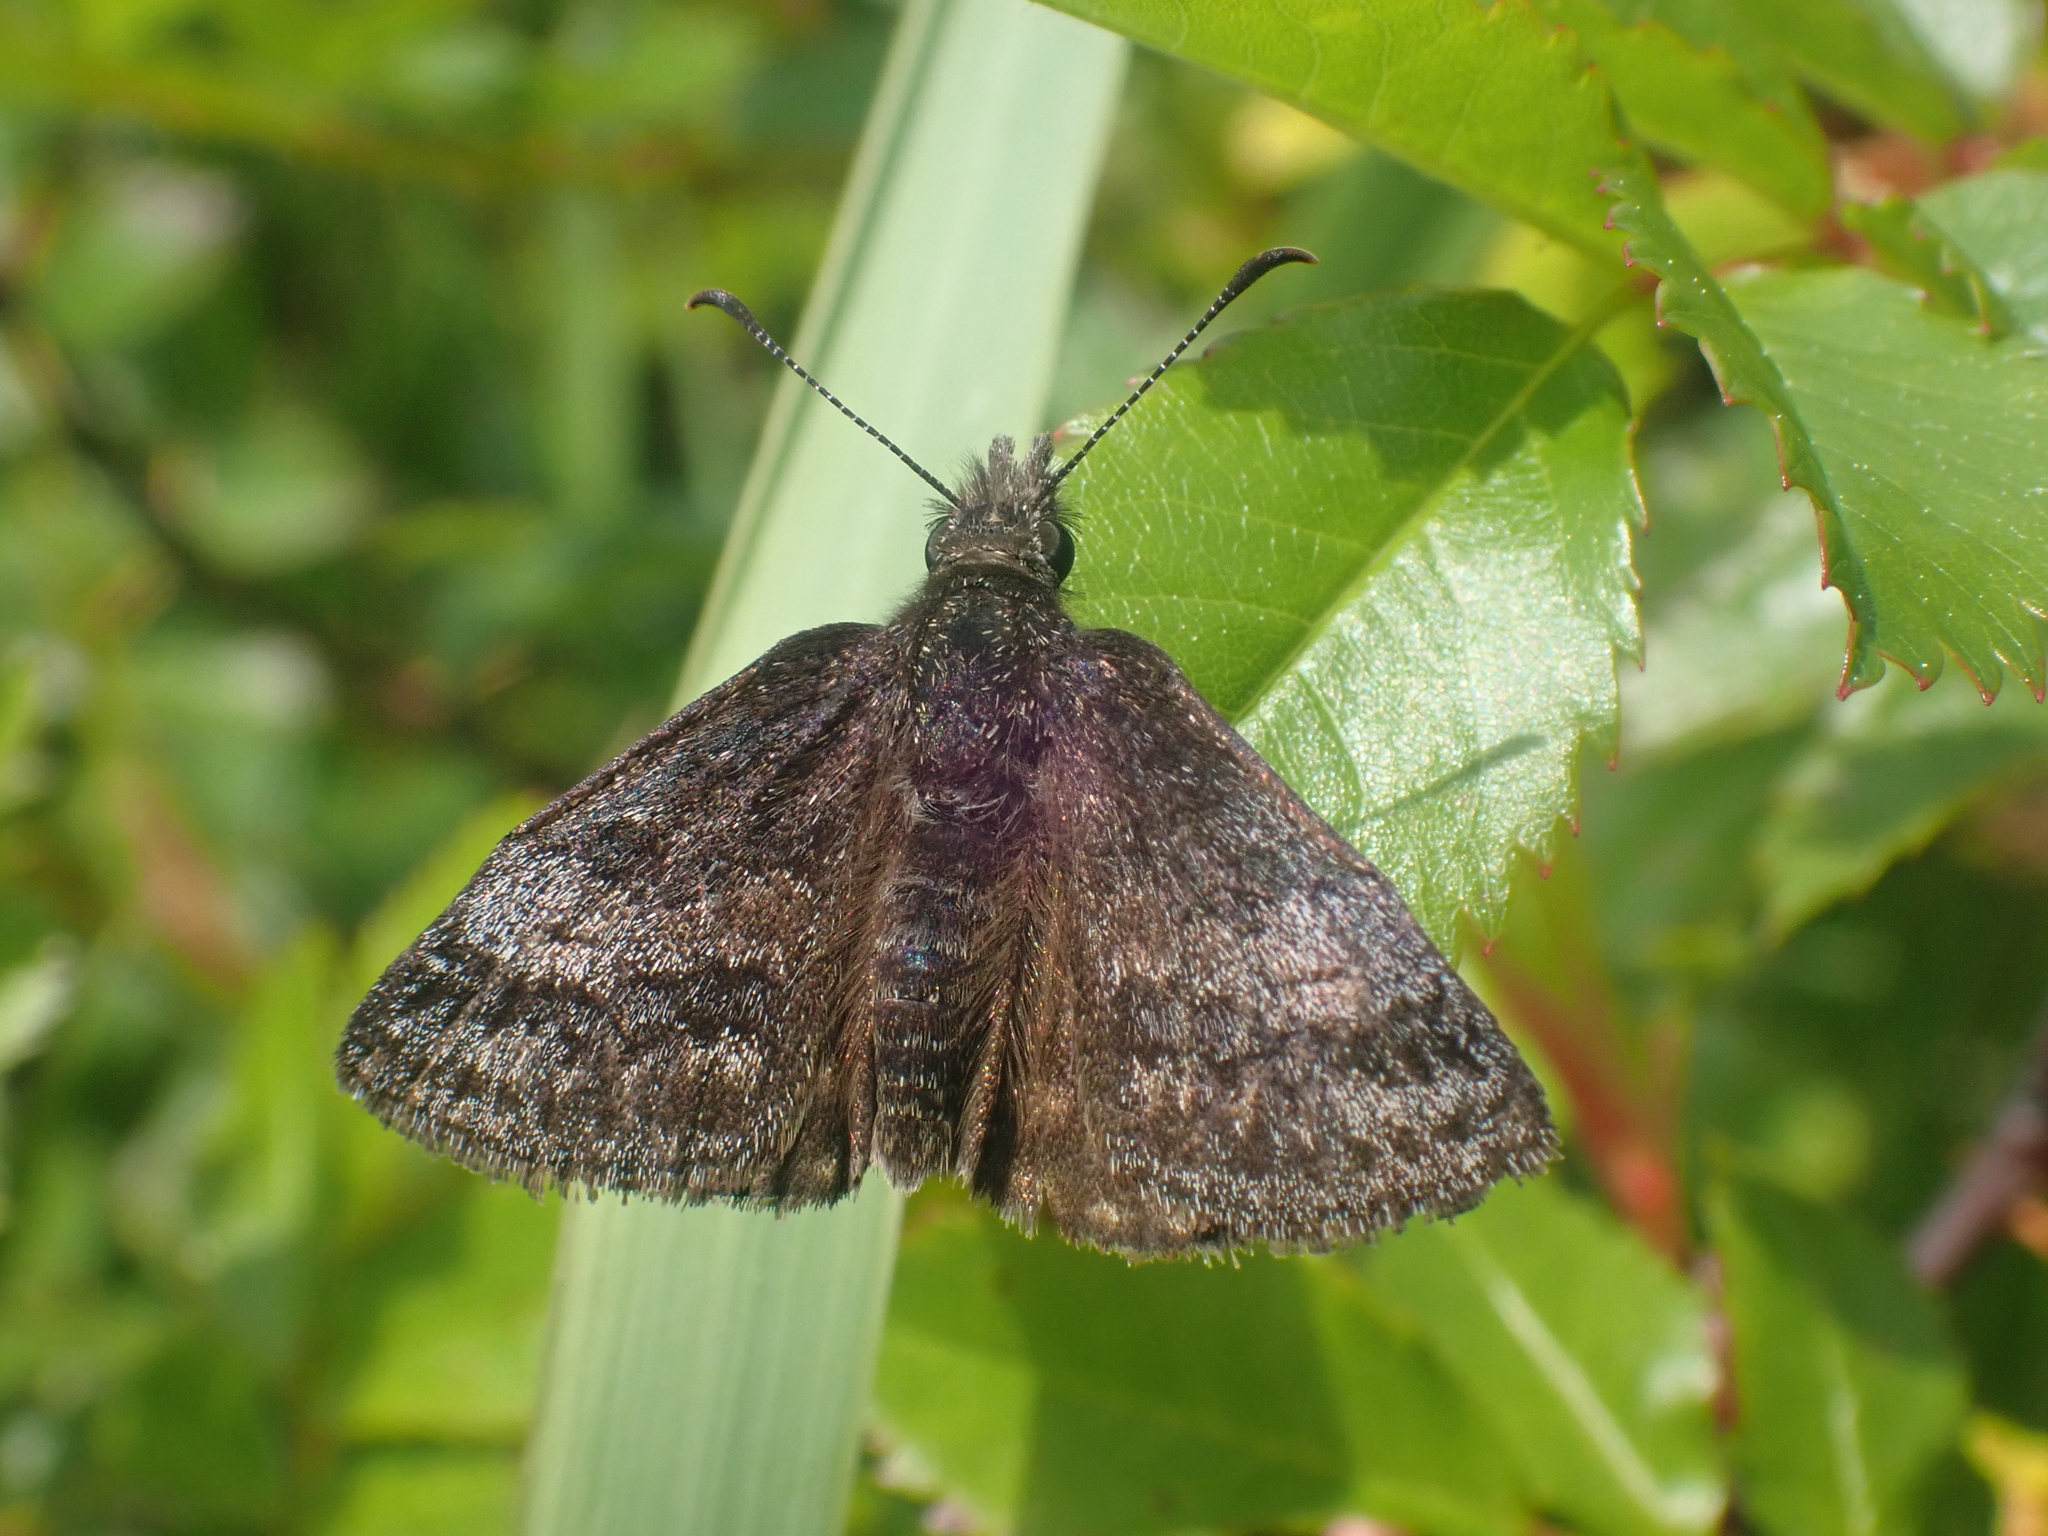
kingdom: Animalia
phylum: Arthropoda
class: Insecta
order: Lepidoptera
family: Hesperiidae
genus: Erynnis
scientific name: Erynnis icelus
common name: Dreamy duskywing
